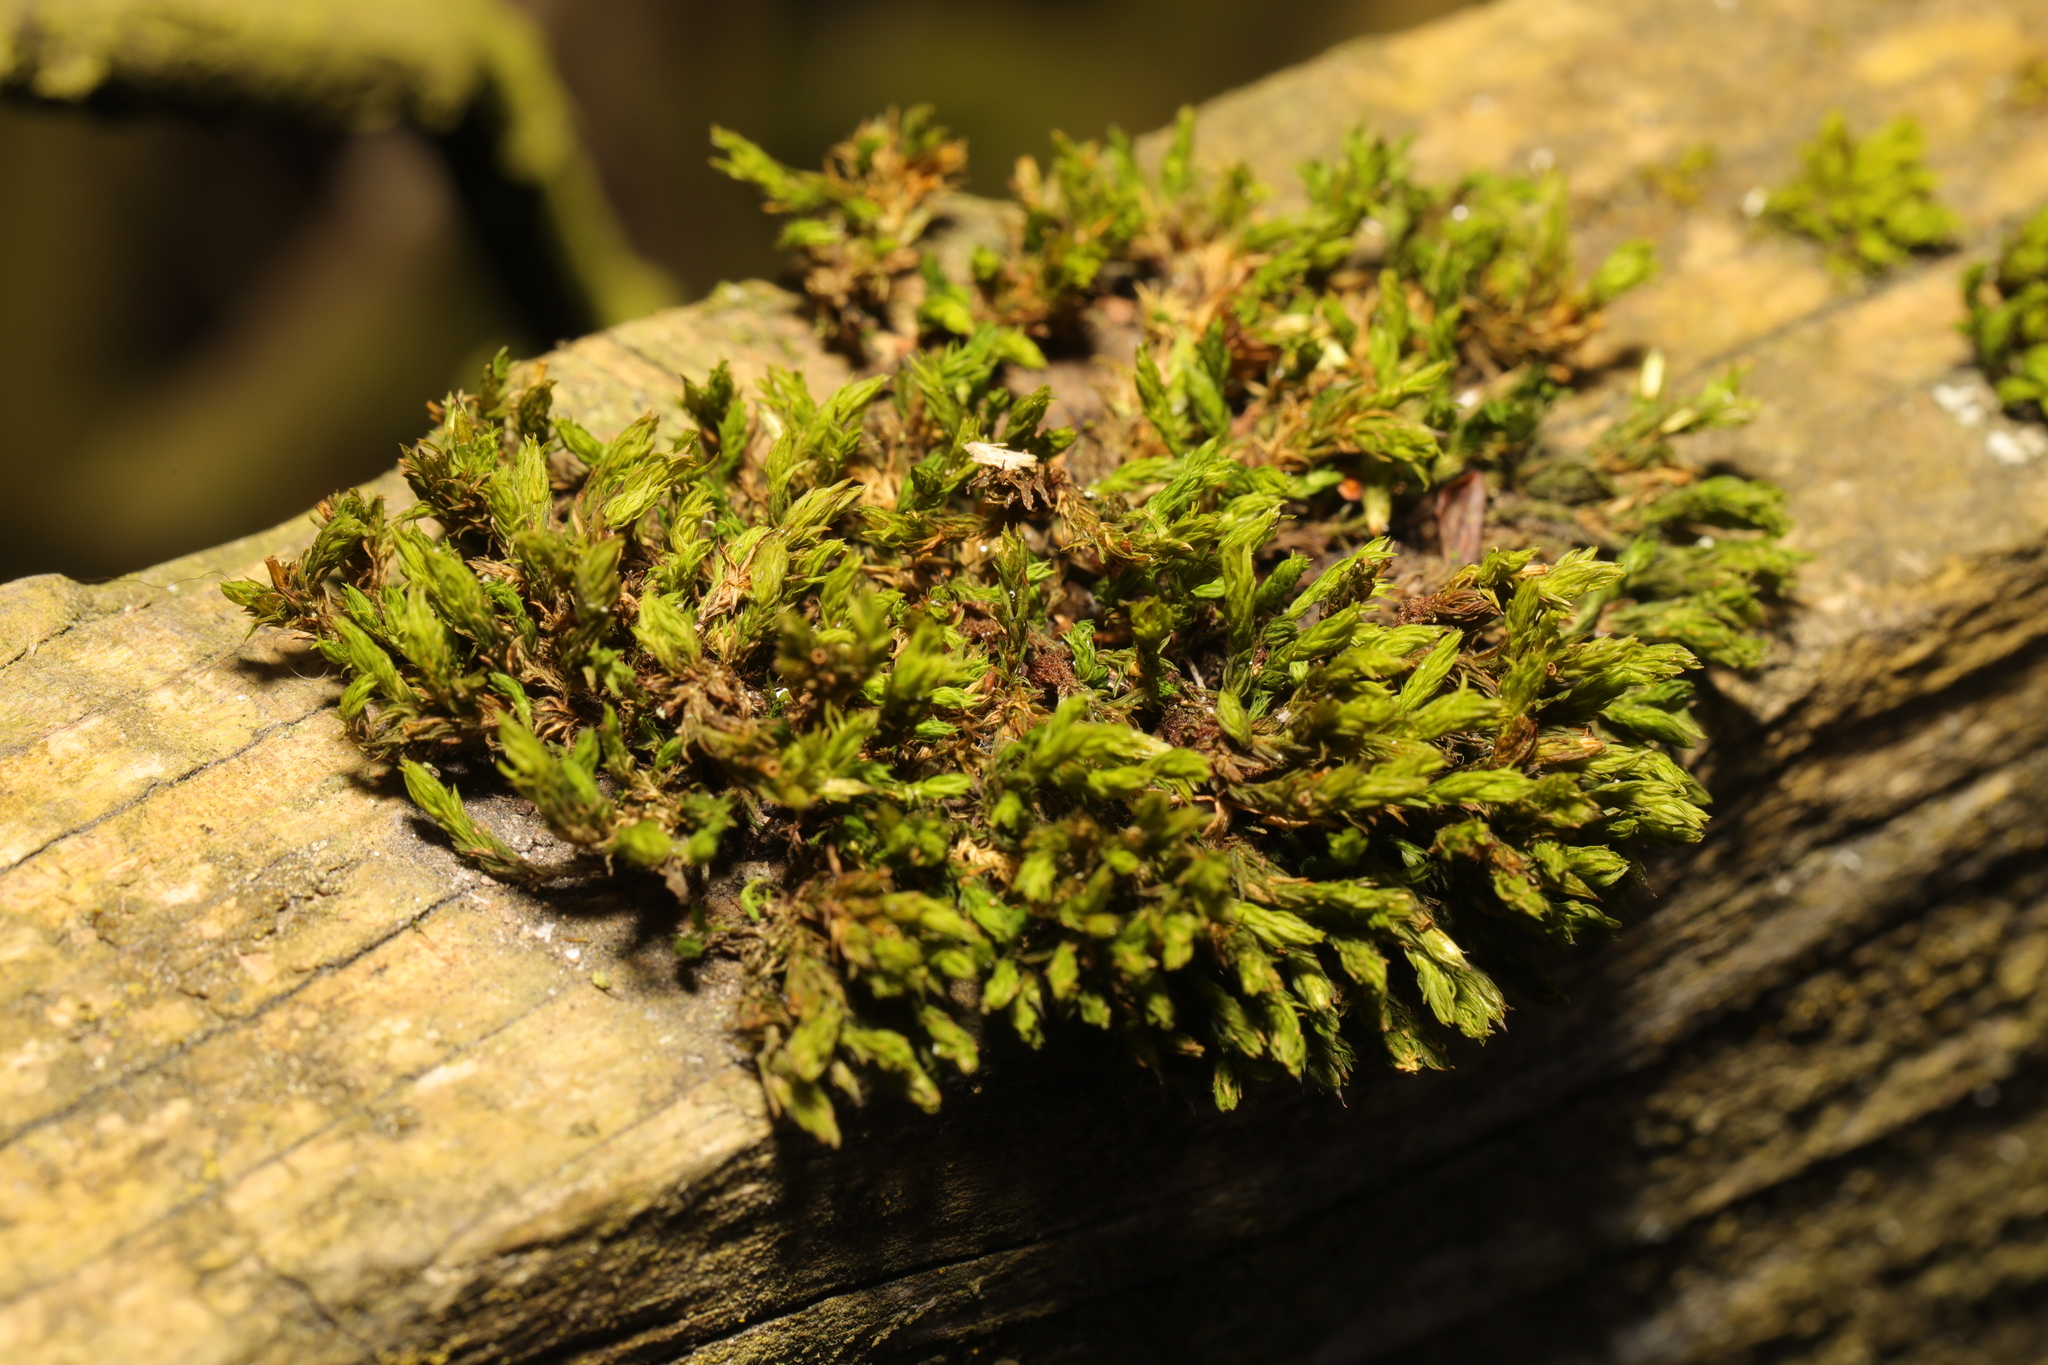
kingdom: Plantae
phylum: Bryophyta
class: Bryopsida
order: Orthotrichales
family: Orthotrichaceae
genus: Lewinskya
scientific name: Lewinskya affinis
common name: Wood bristle-moss
